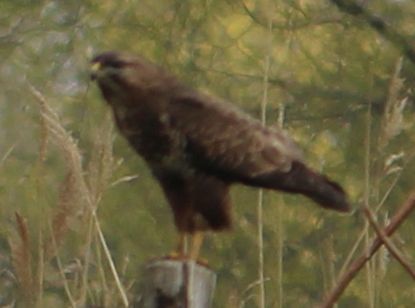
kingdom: Animalia
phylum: Chordata
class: Aves
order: Accipitriformes
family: Accipitridae
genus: Buteo
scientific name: Buteo buteo
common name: Common buzzard
